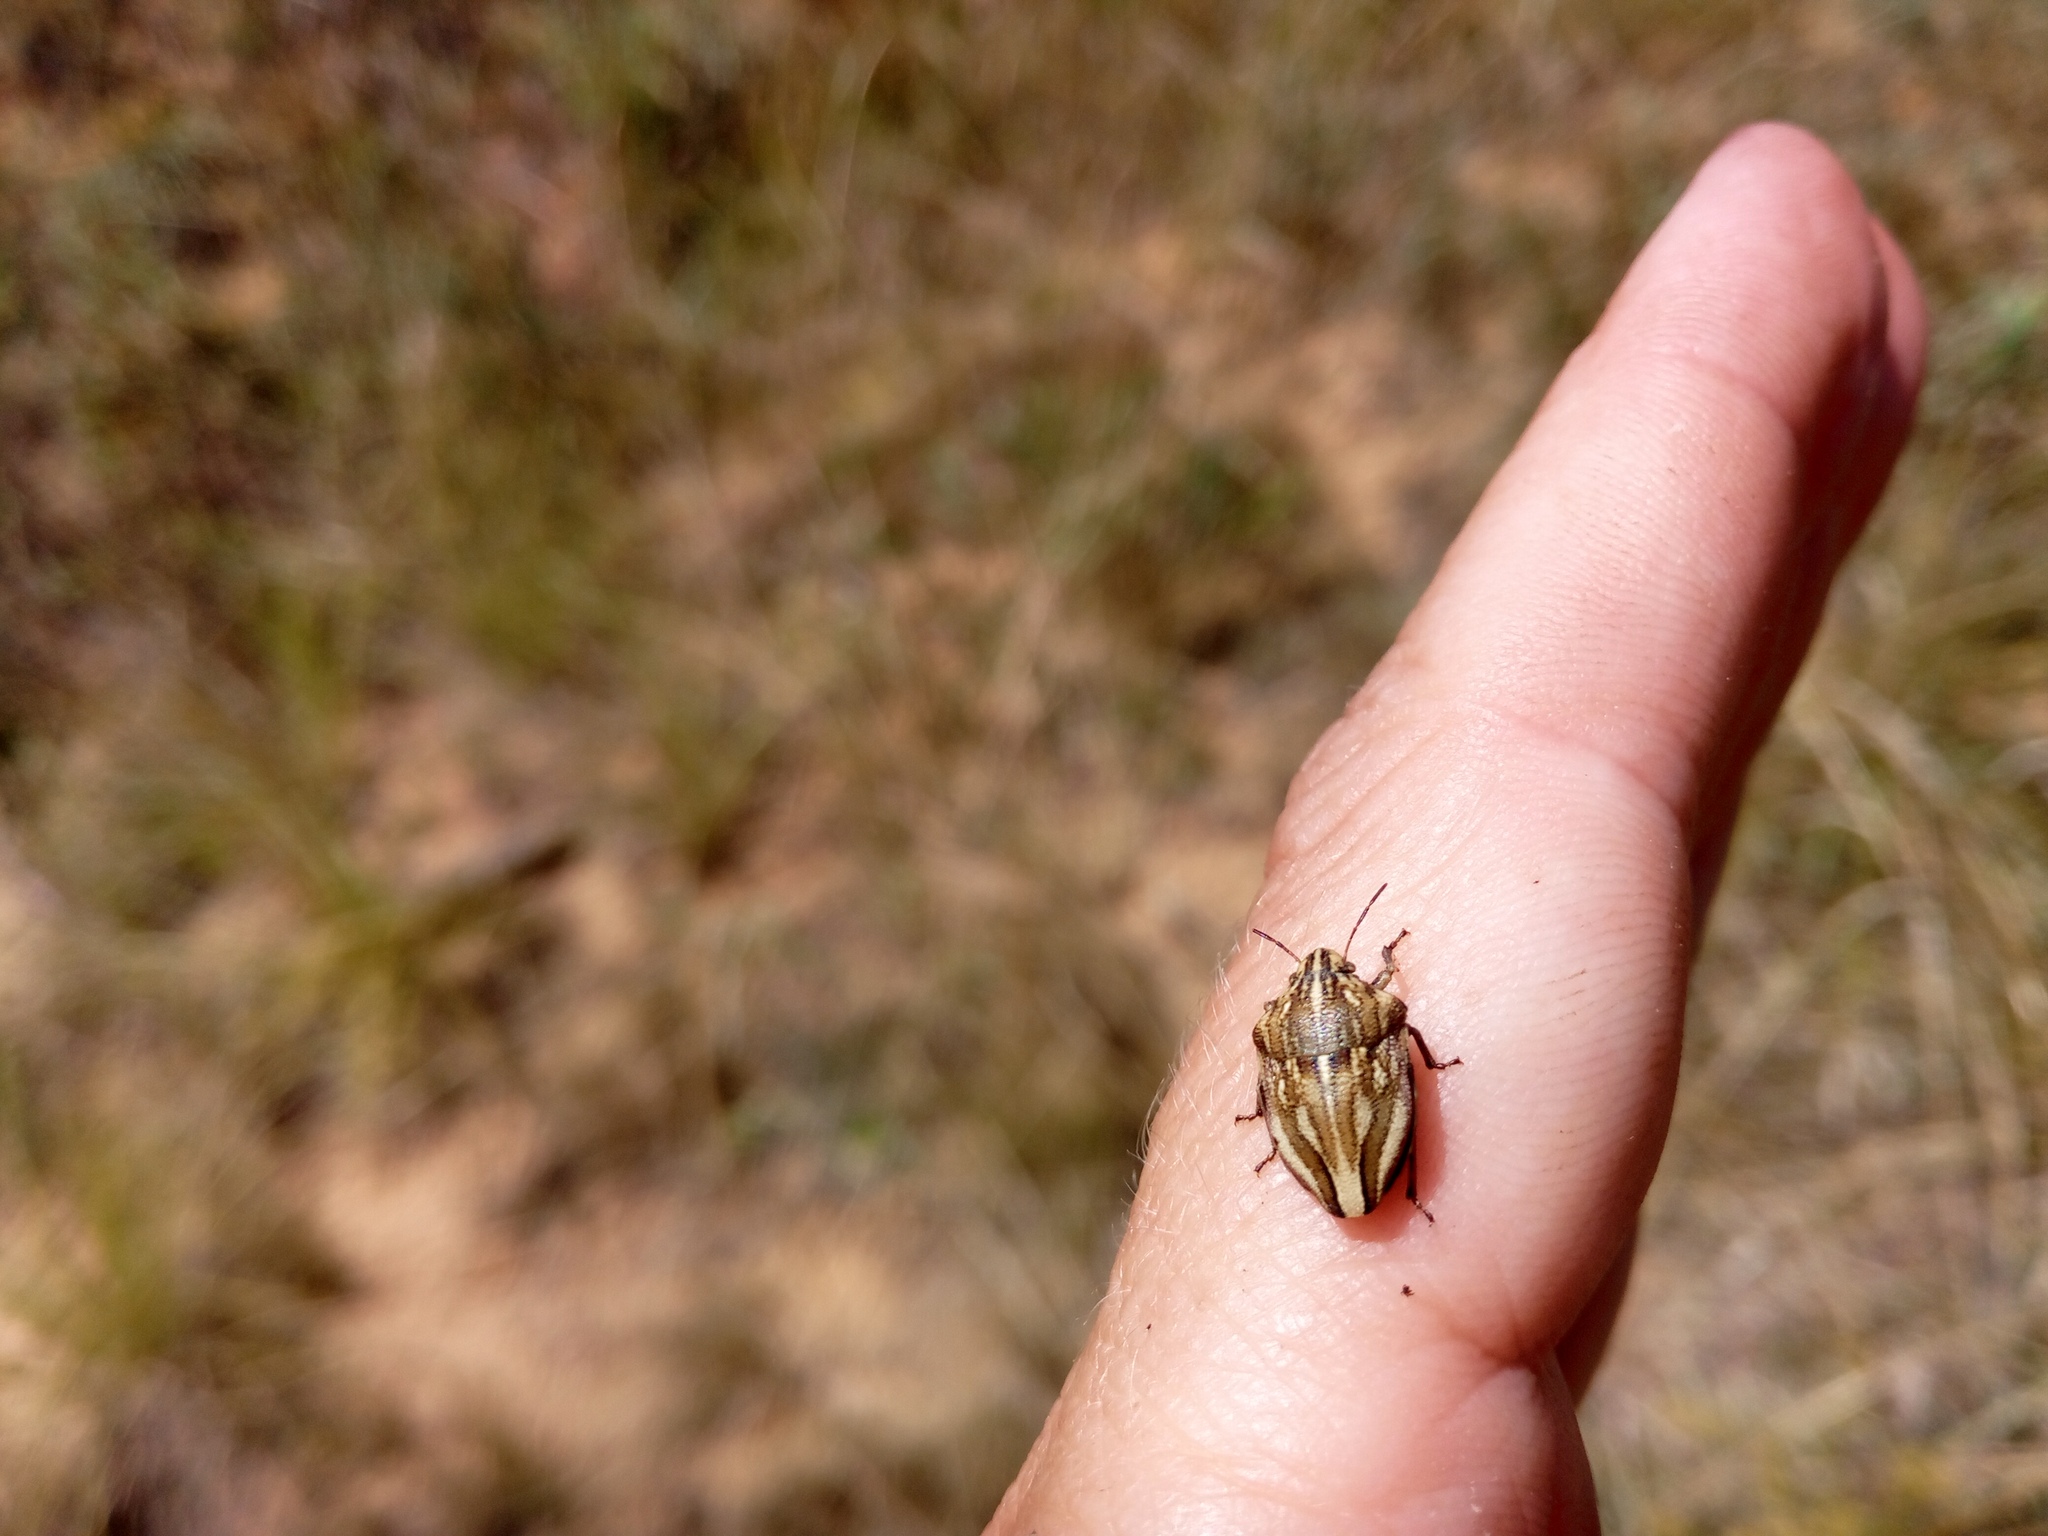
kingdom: Animalia
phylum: Arthropoda
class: Insecta
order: Hemiptera
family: Scutelleridae
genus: Odontotarsus
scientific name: Odontotarsus purpureolineatus
